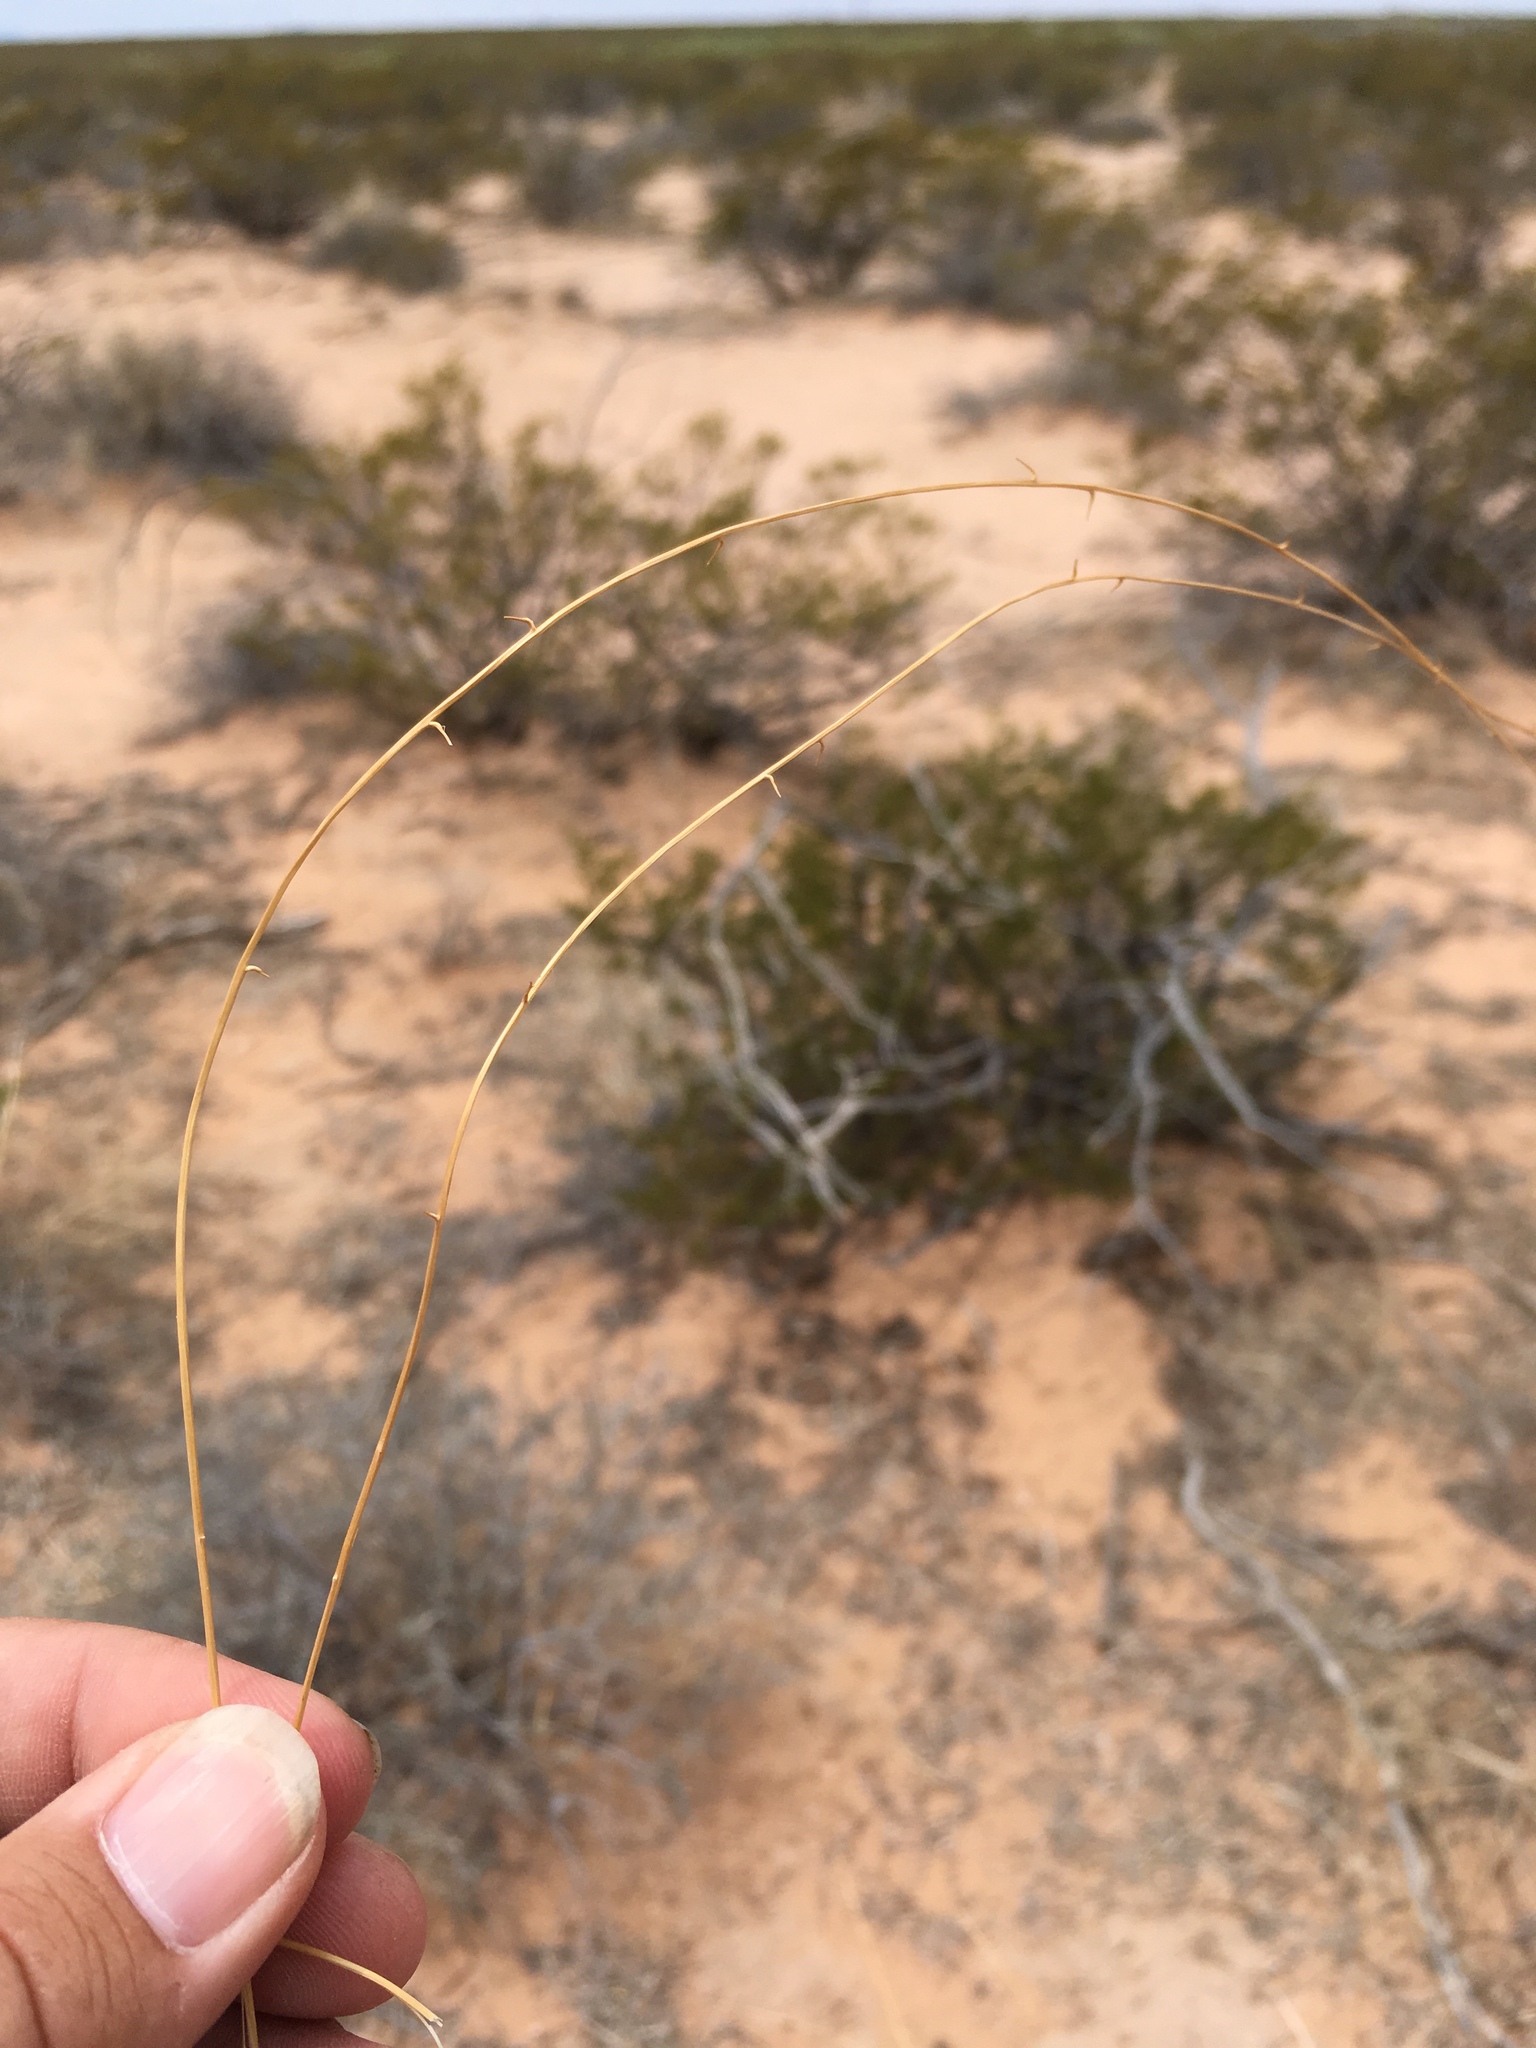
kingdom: Plantae
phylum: Tracheophyta
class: Liliopsida
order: Poales
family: Poaceae
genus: Sporobolus
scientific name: Sporobolus flexuosus
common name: Mesa dropseed
